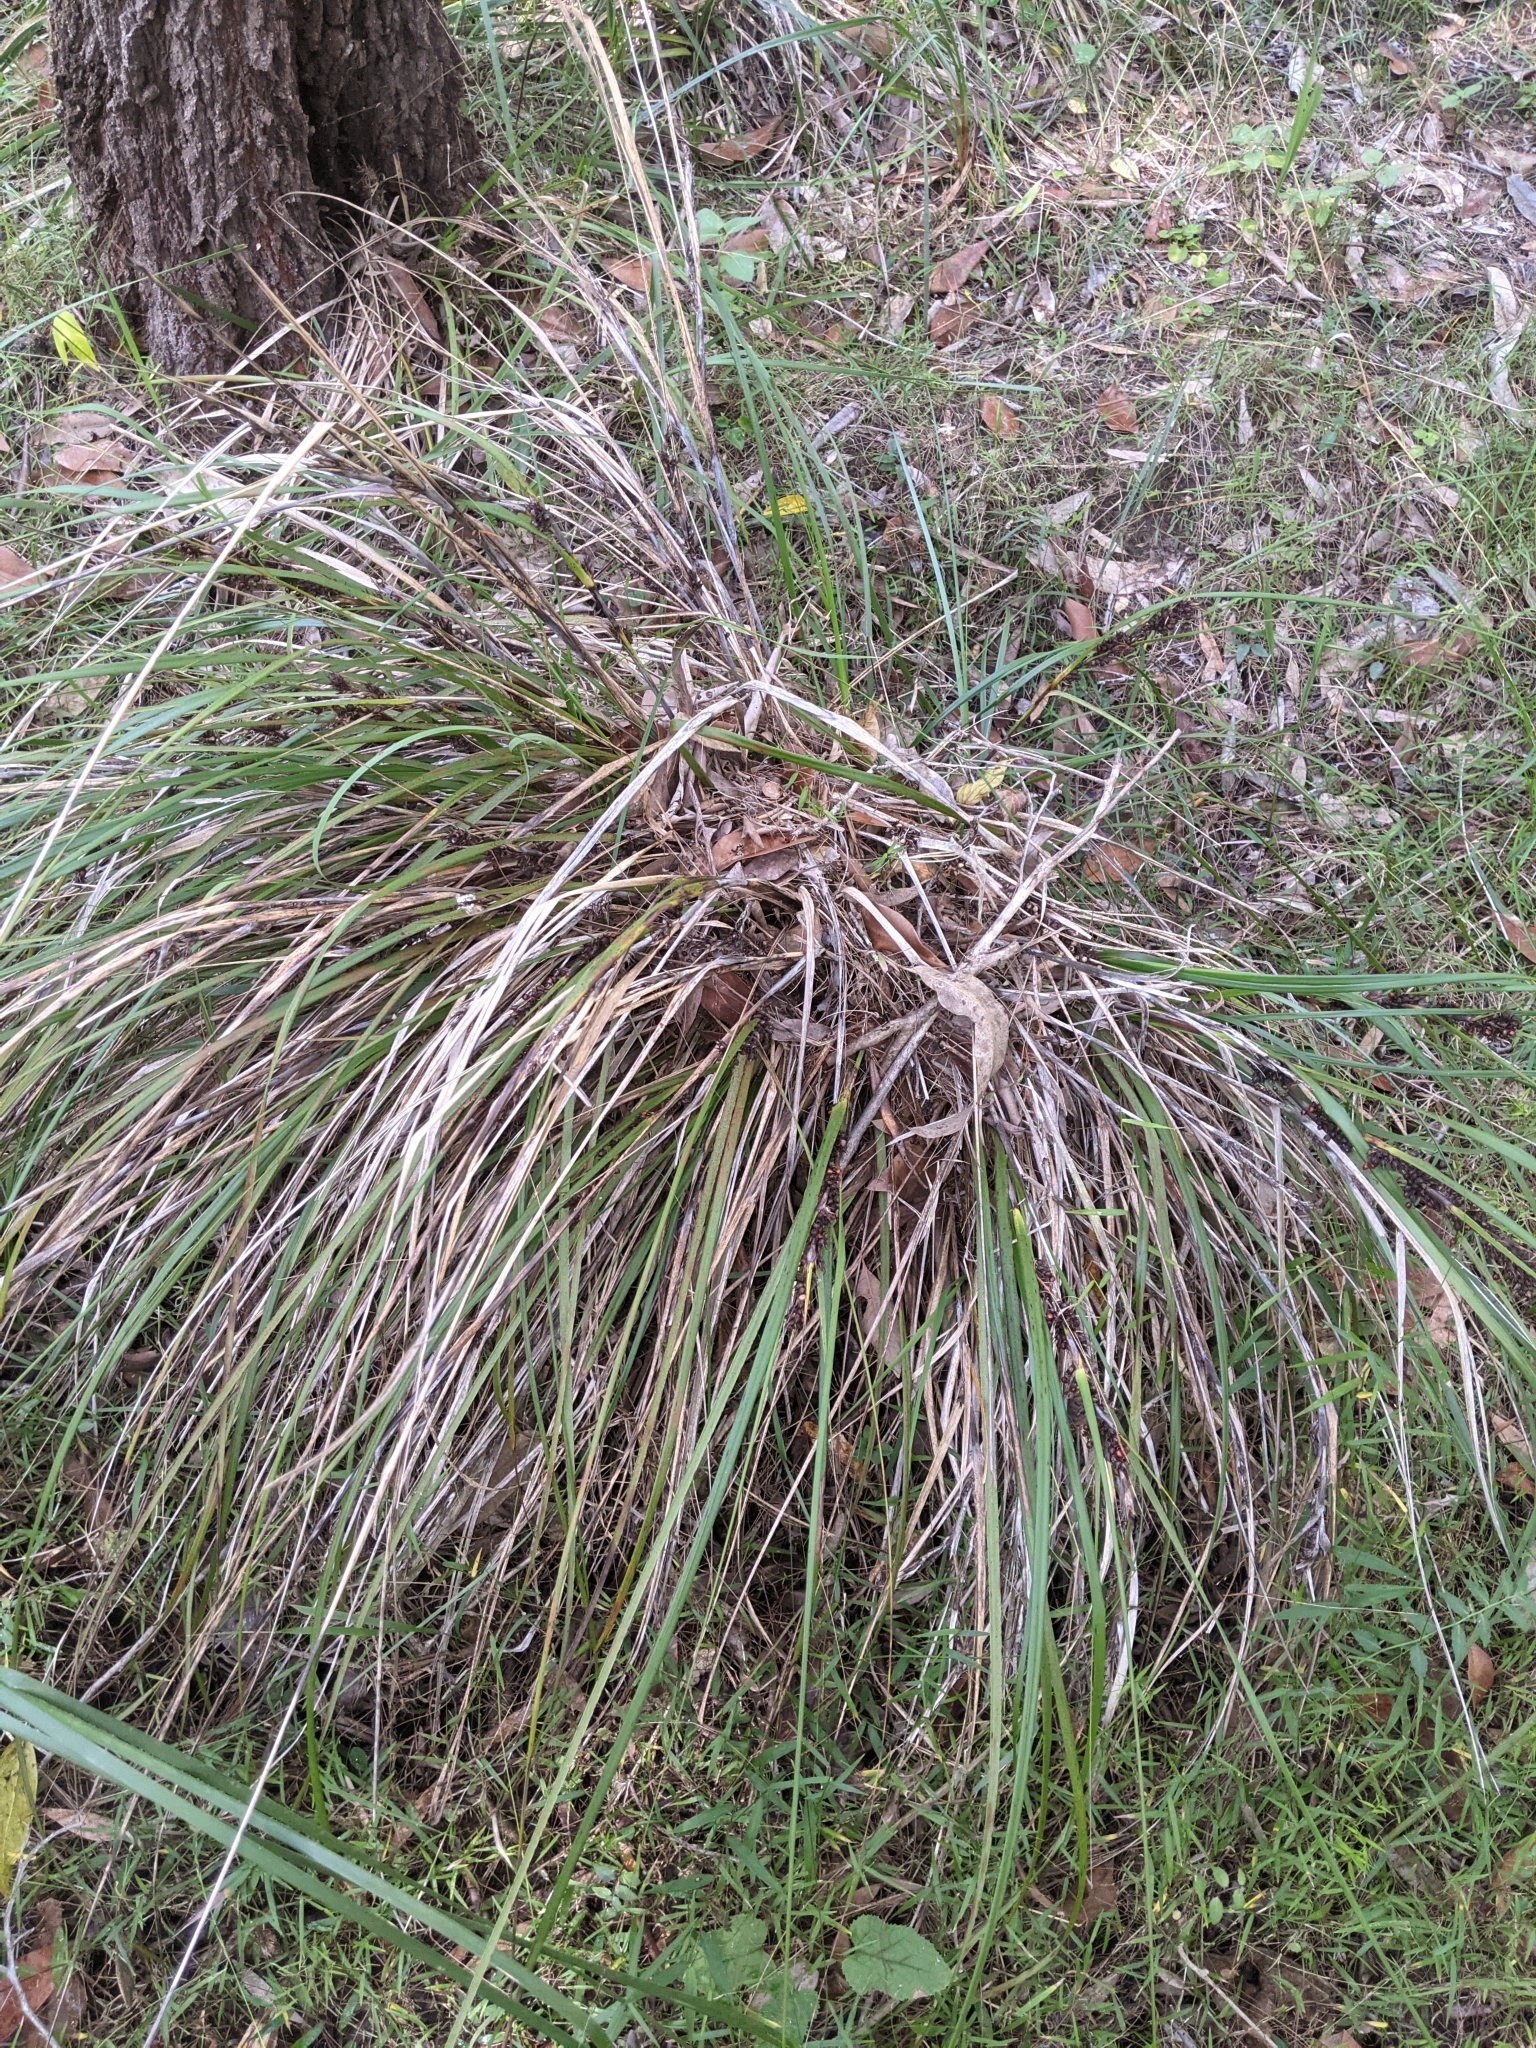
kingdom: Plantae
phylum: Tracheophyta
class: Liliopsida
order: Poales
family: Cyperaceae
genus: Gahnia
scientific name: Gahnia aspera
